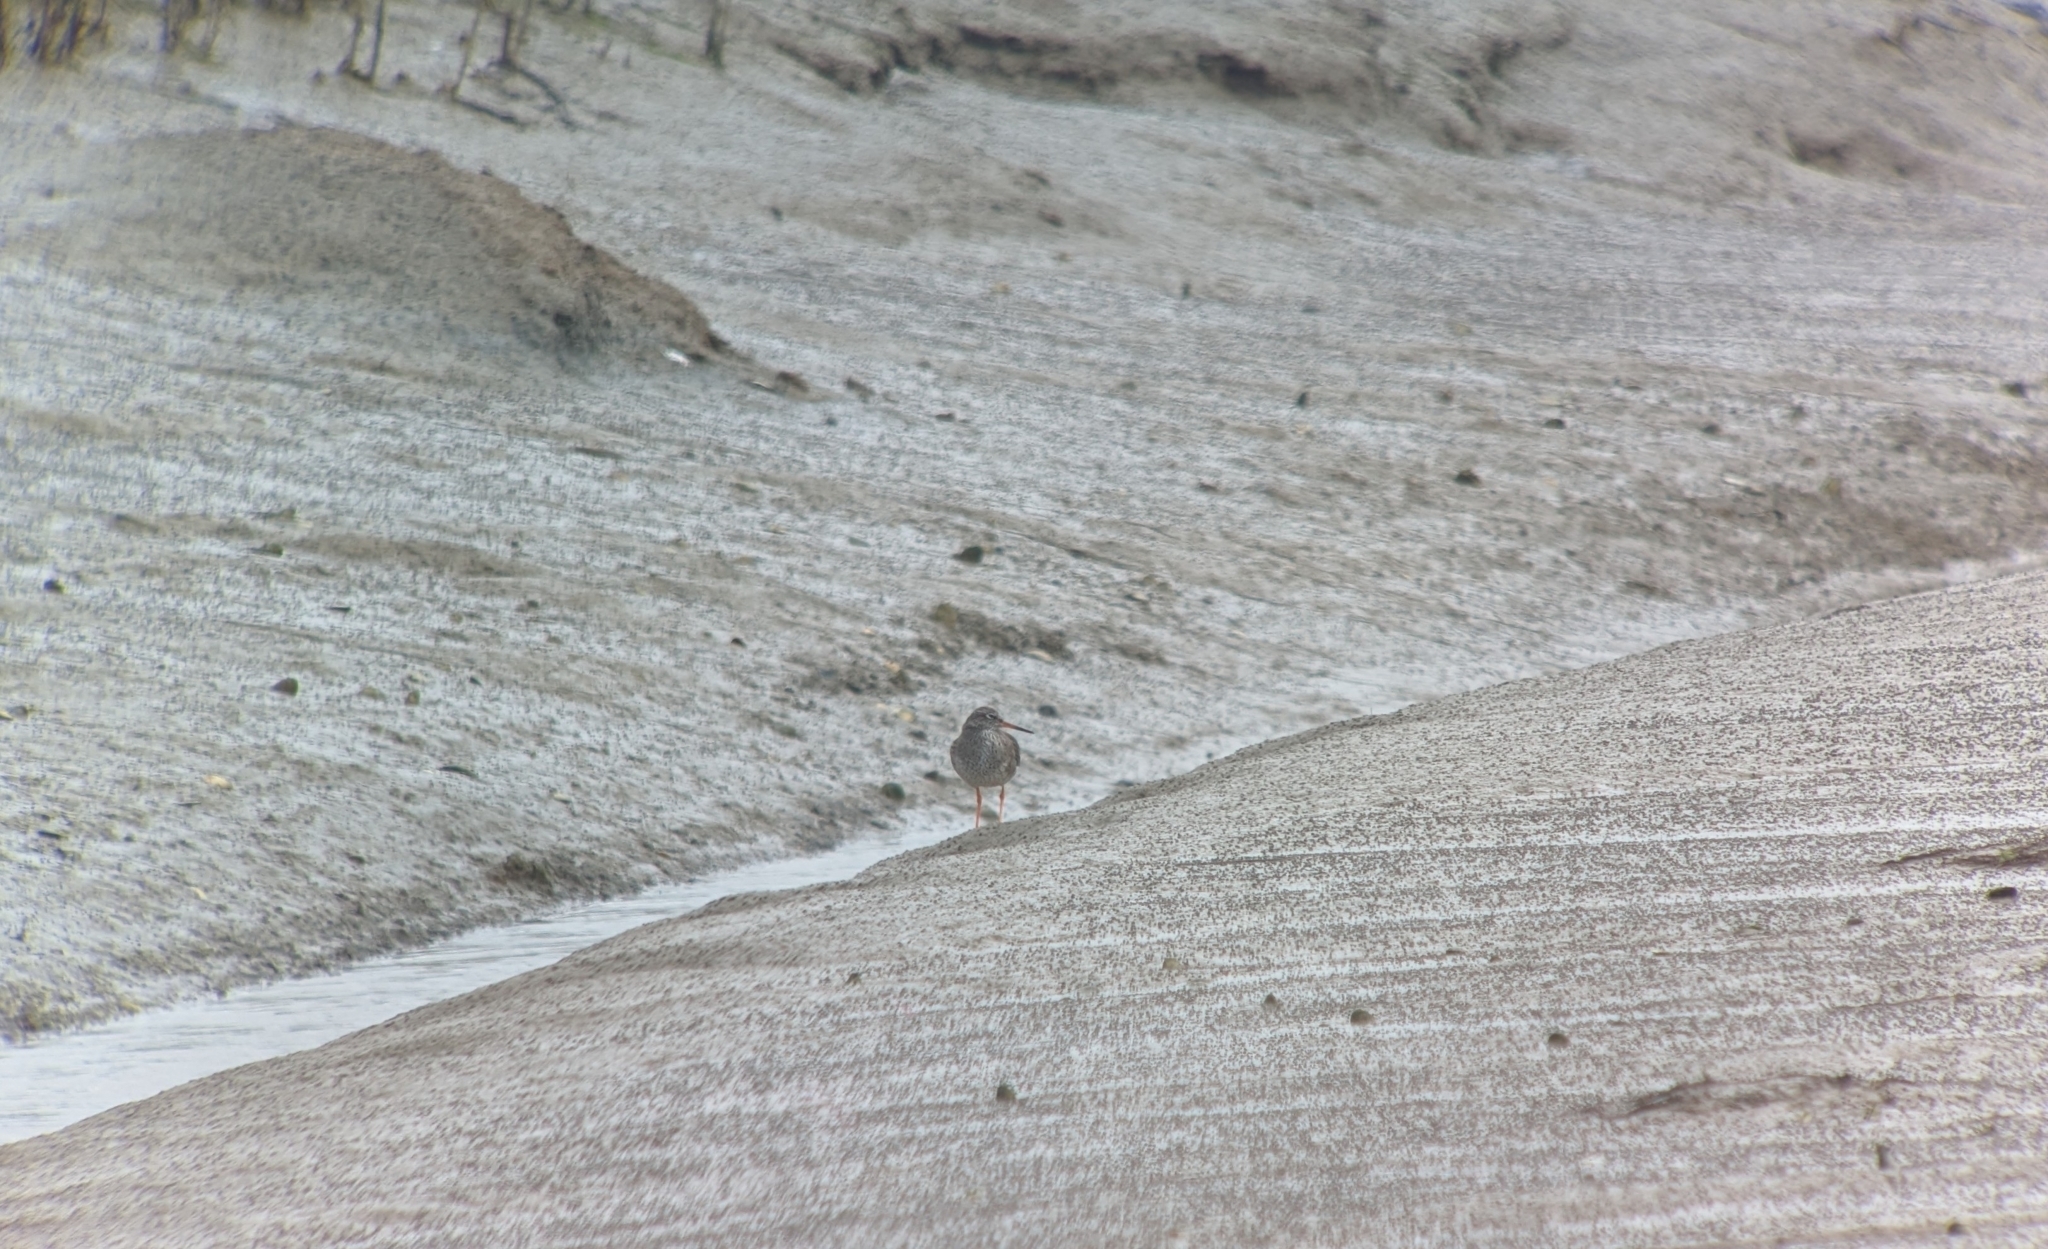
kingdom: Animalia
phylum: Chordata
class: Aves
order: Charadriiformes
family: Scolopacidae
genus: Tringa
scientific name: Tringa totanus
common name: Common redshank
